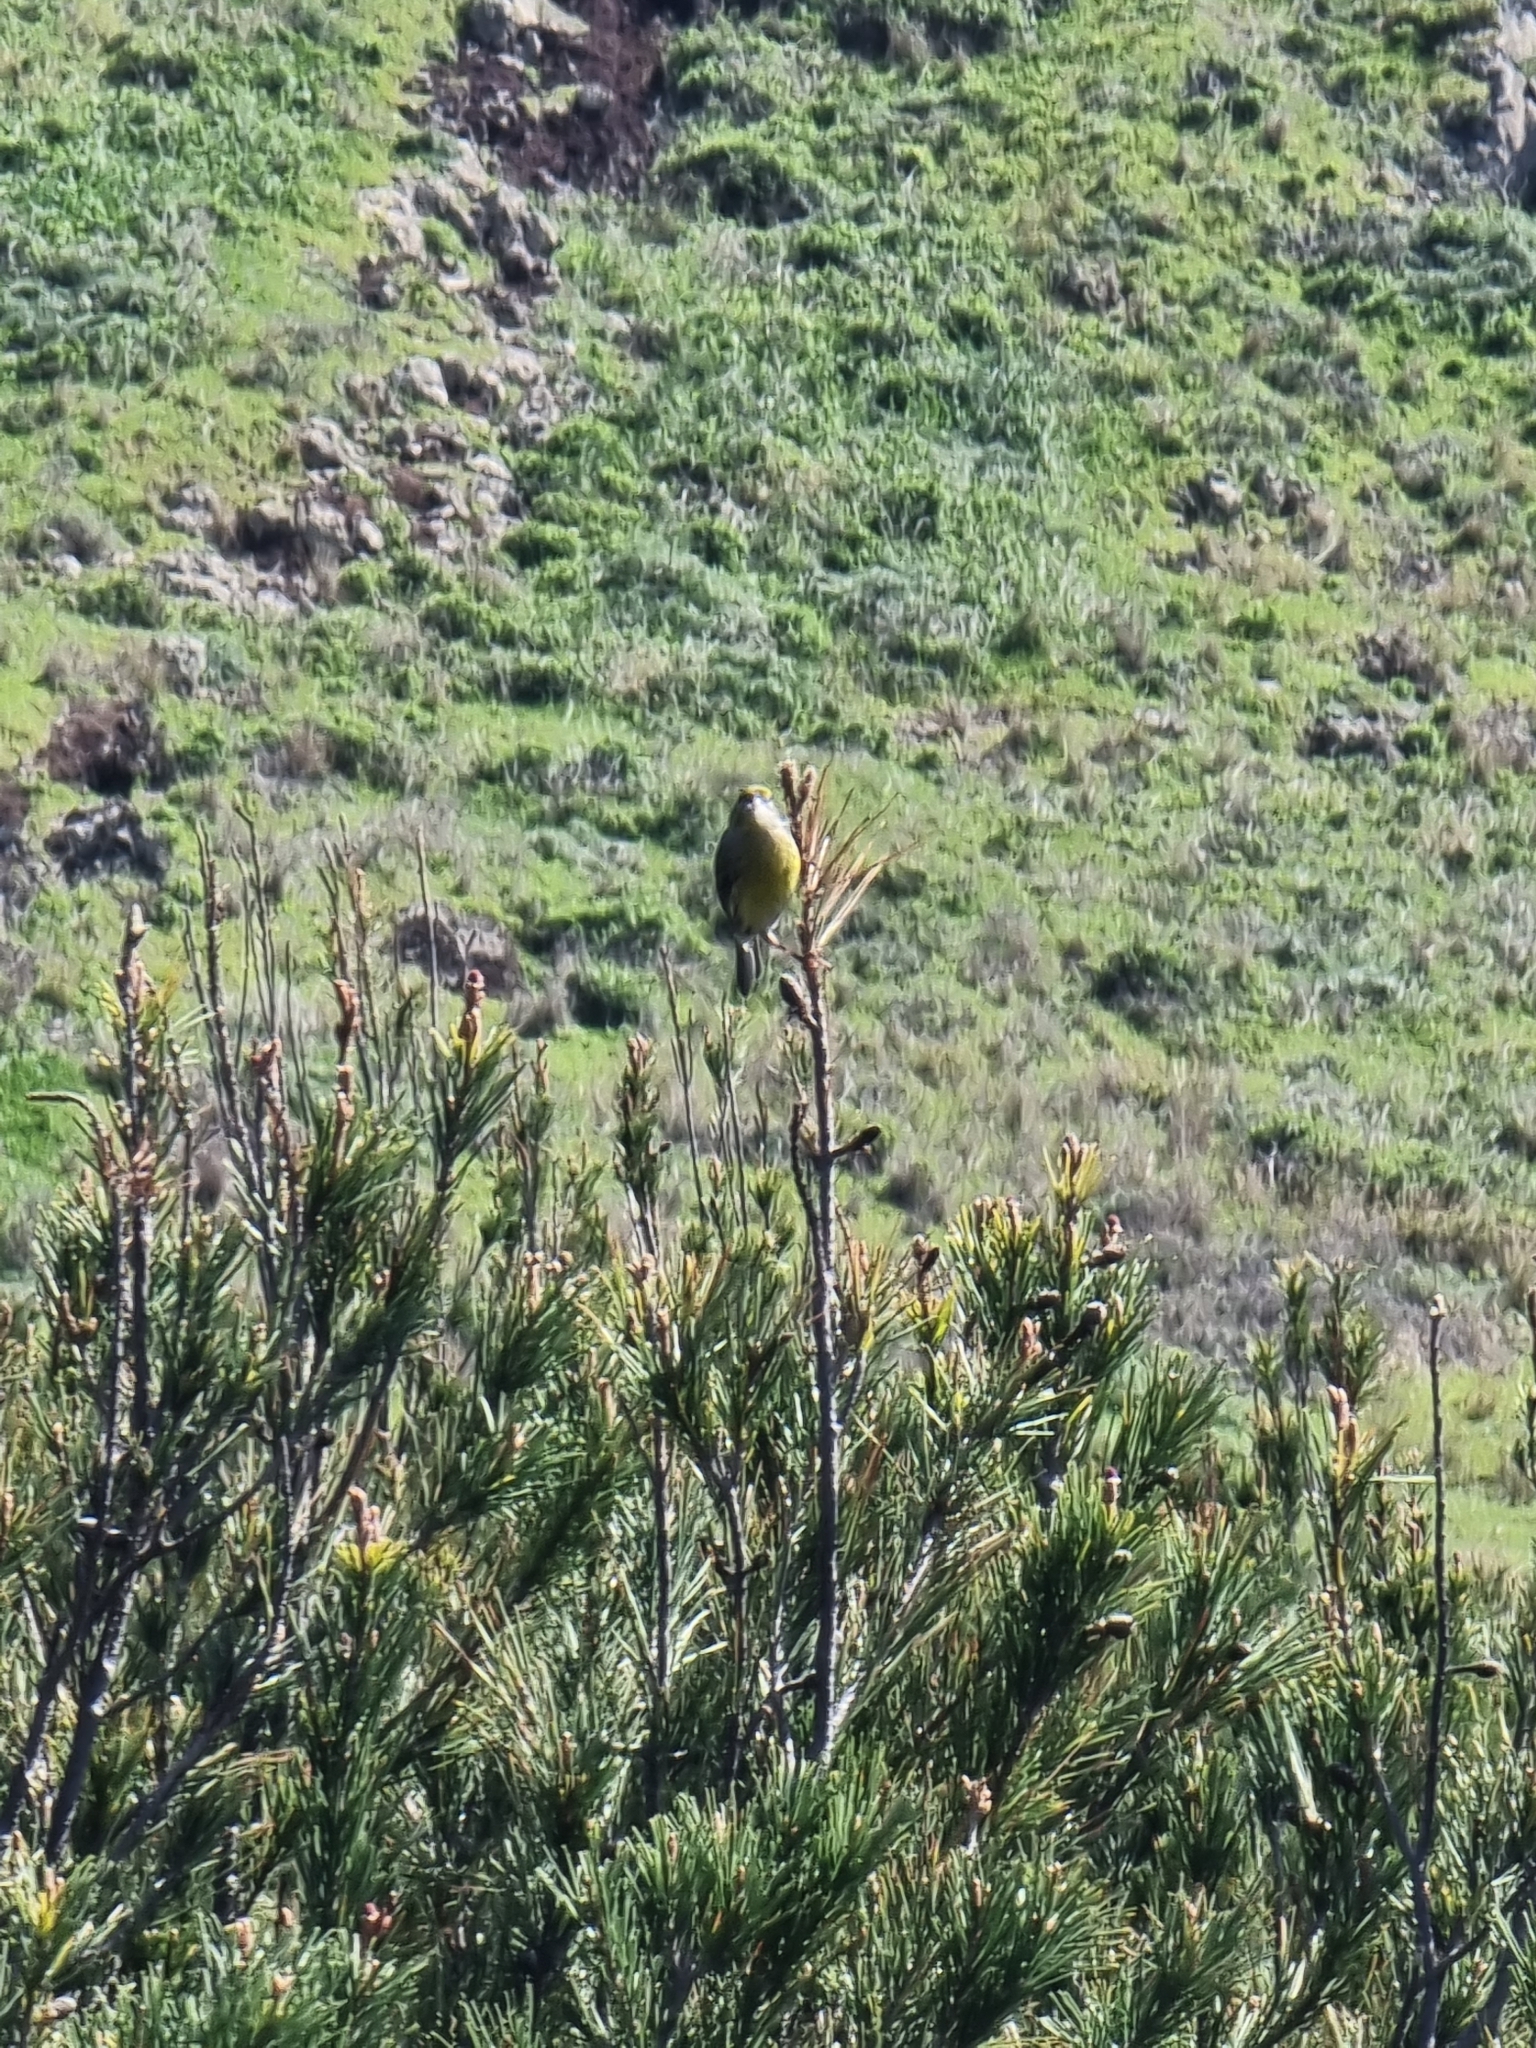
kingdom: Animalia
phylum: Chordata
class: Aves
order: Passeriformes
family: Fringillidae
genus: Serinus
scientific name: Serinus canaria
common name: Atlantic canary
